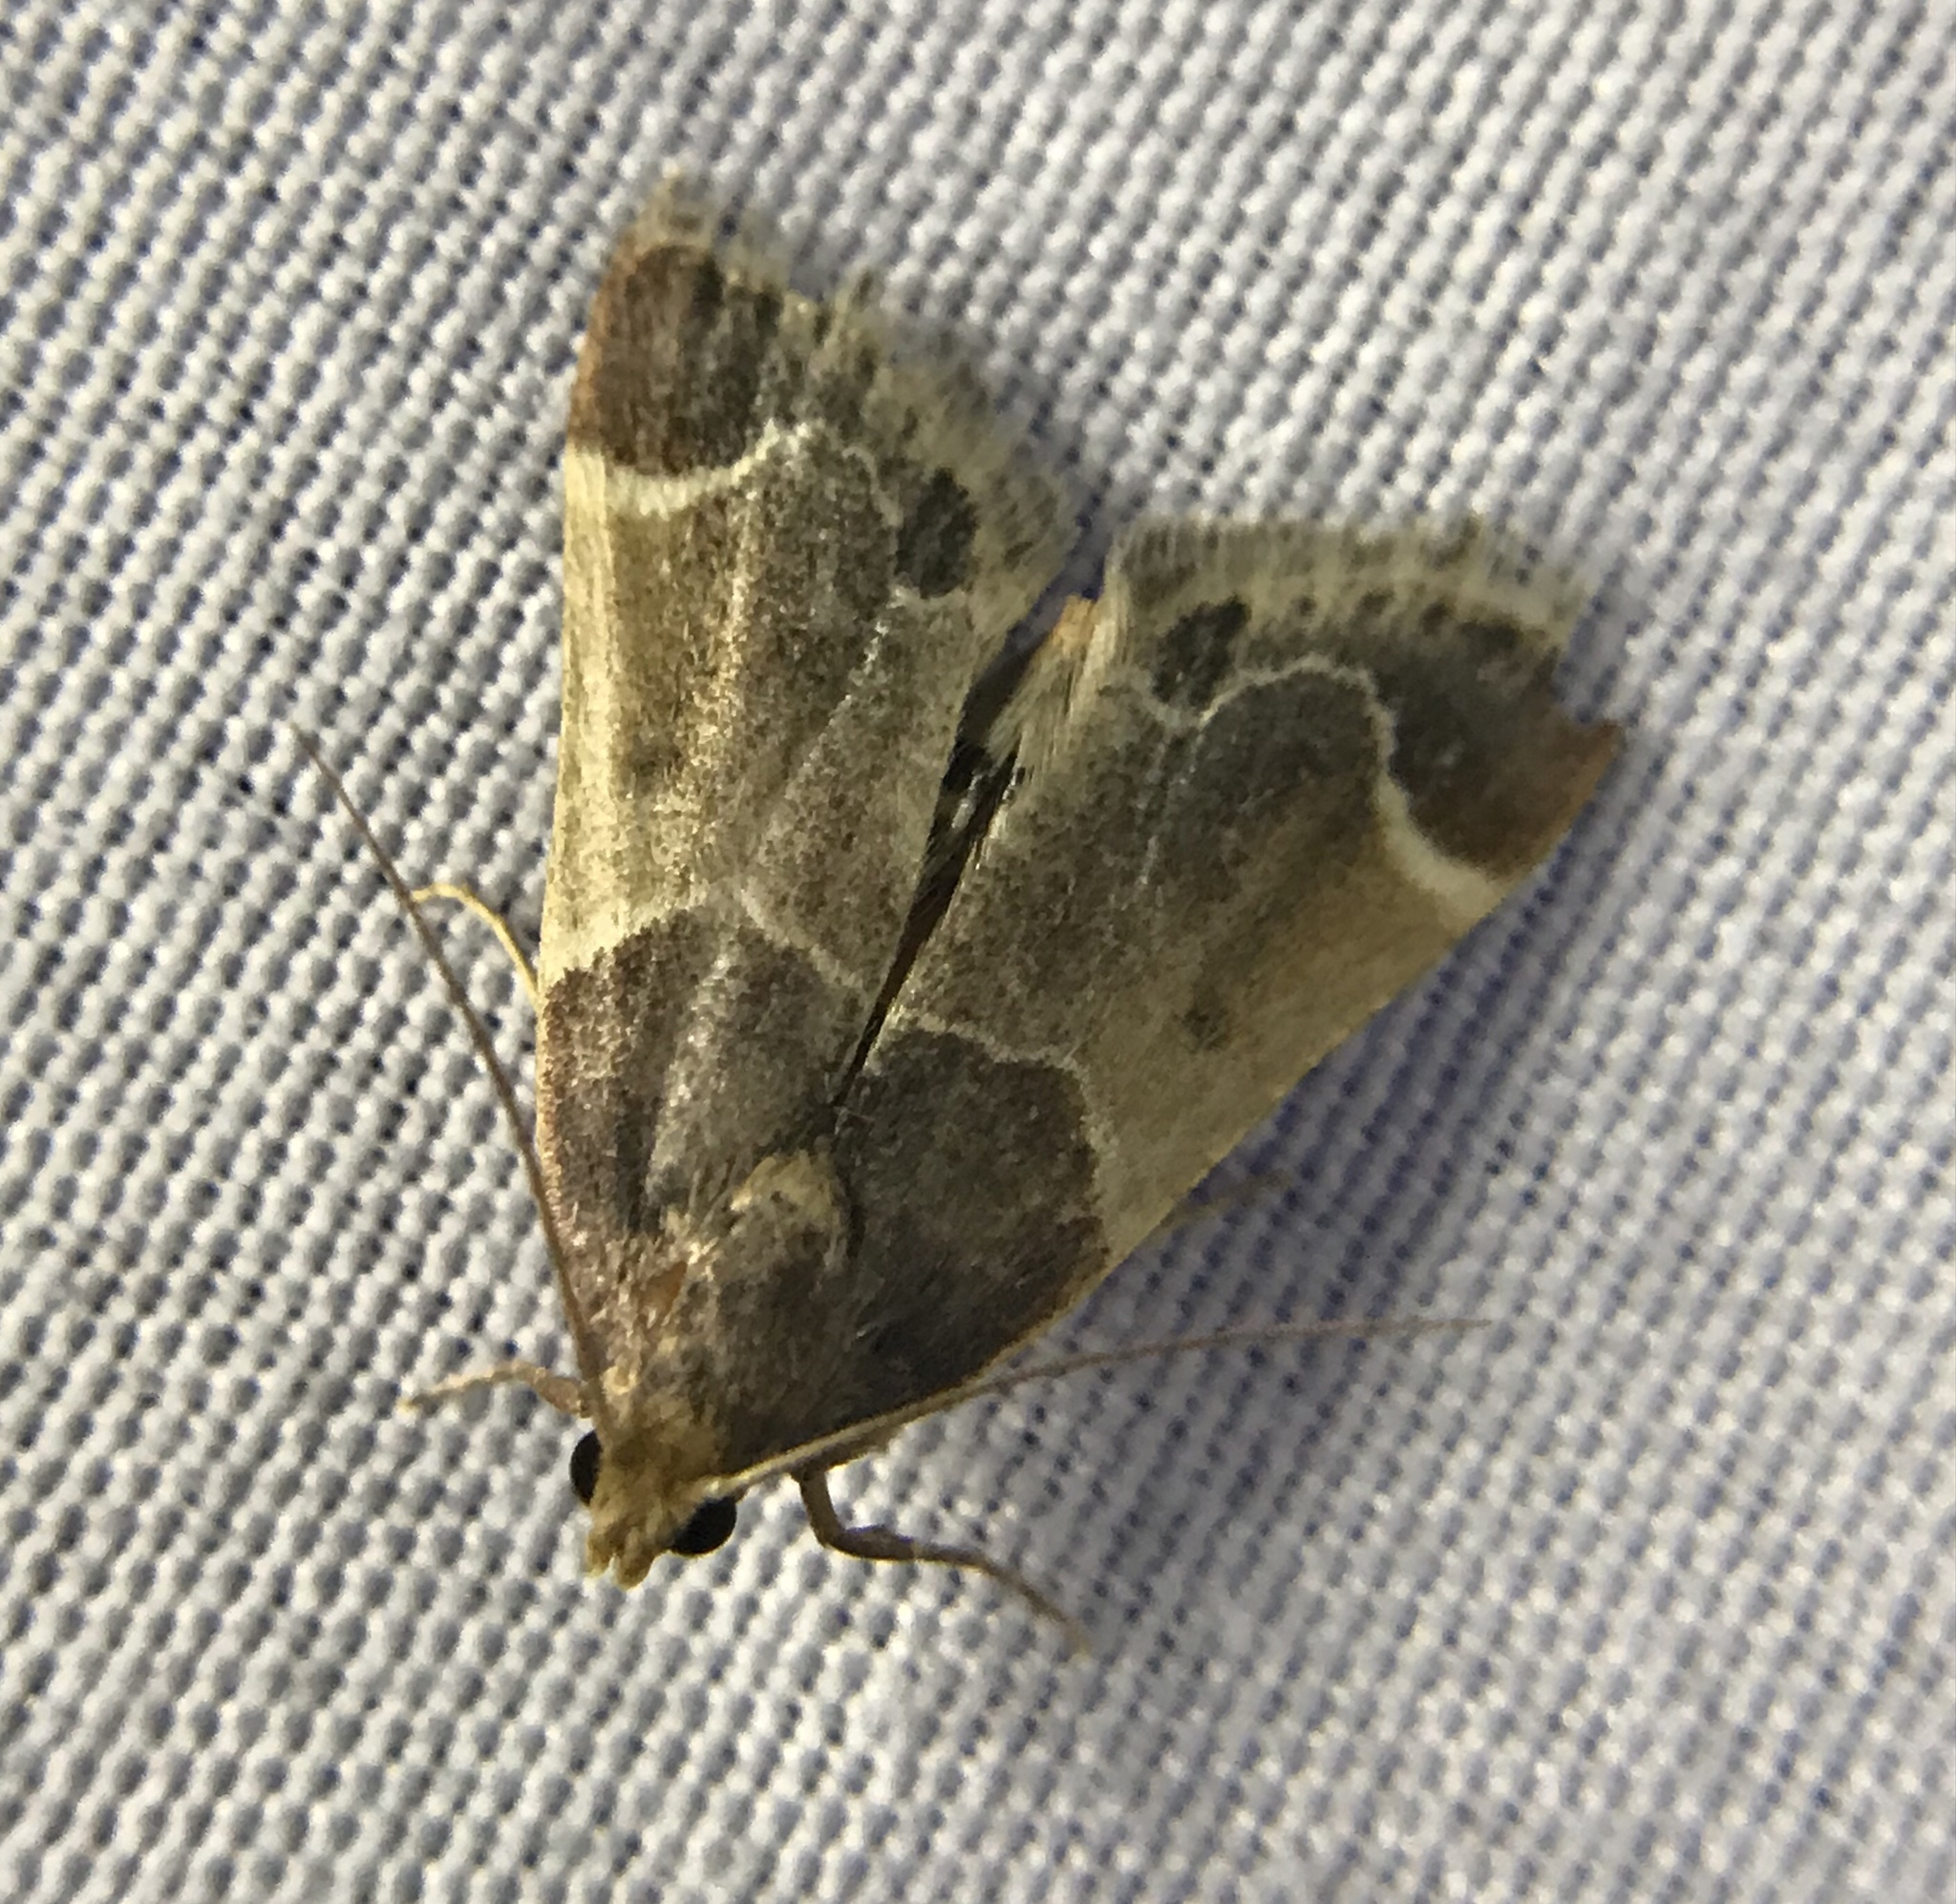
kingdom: Animalia
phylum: Arthropoda
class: Insecta
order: Lepidoptera
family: Pyralidae
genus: Pyralis
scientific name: Pyralis farinalis
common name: Meal moth
